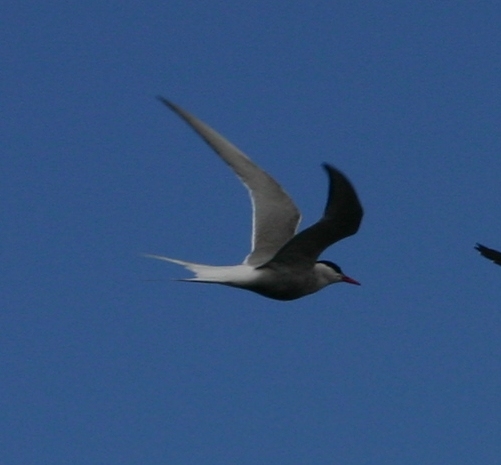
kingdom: Animalia
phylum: Chordata
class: Aves
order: Charadriiformes
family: Laridae
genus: Sterna
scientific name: Sterna paradisaea
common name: Arctic tern
